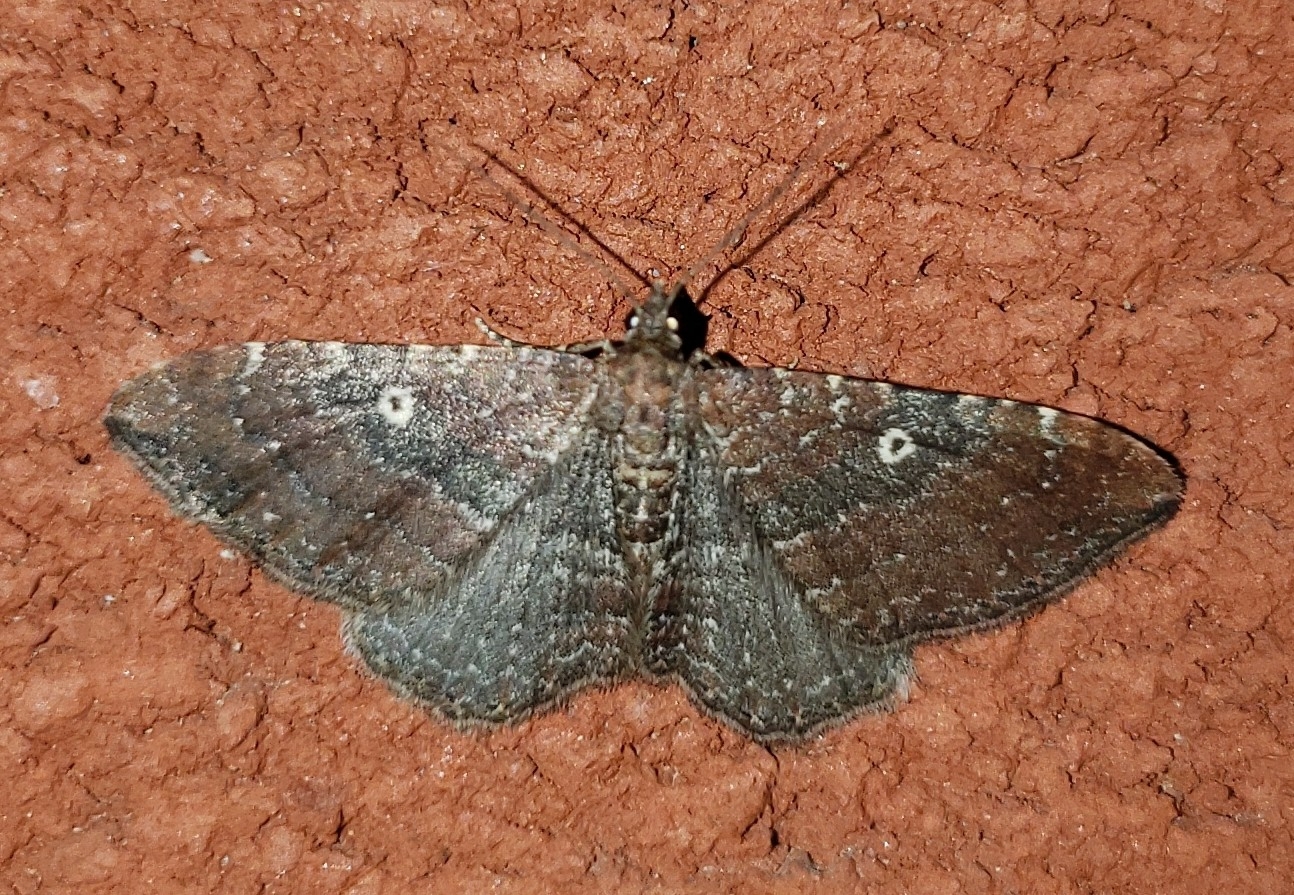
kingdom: Animalia
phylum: Arthropoda
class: Insecta
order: Lepidoptera
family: Geometridae
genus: Orthonama
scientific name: Orthonama obstipata
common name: The gem
